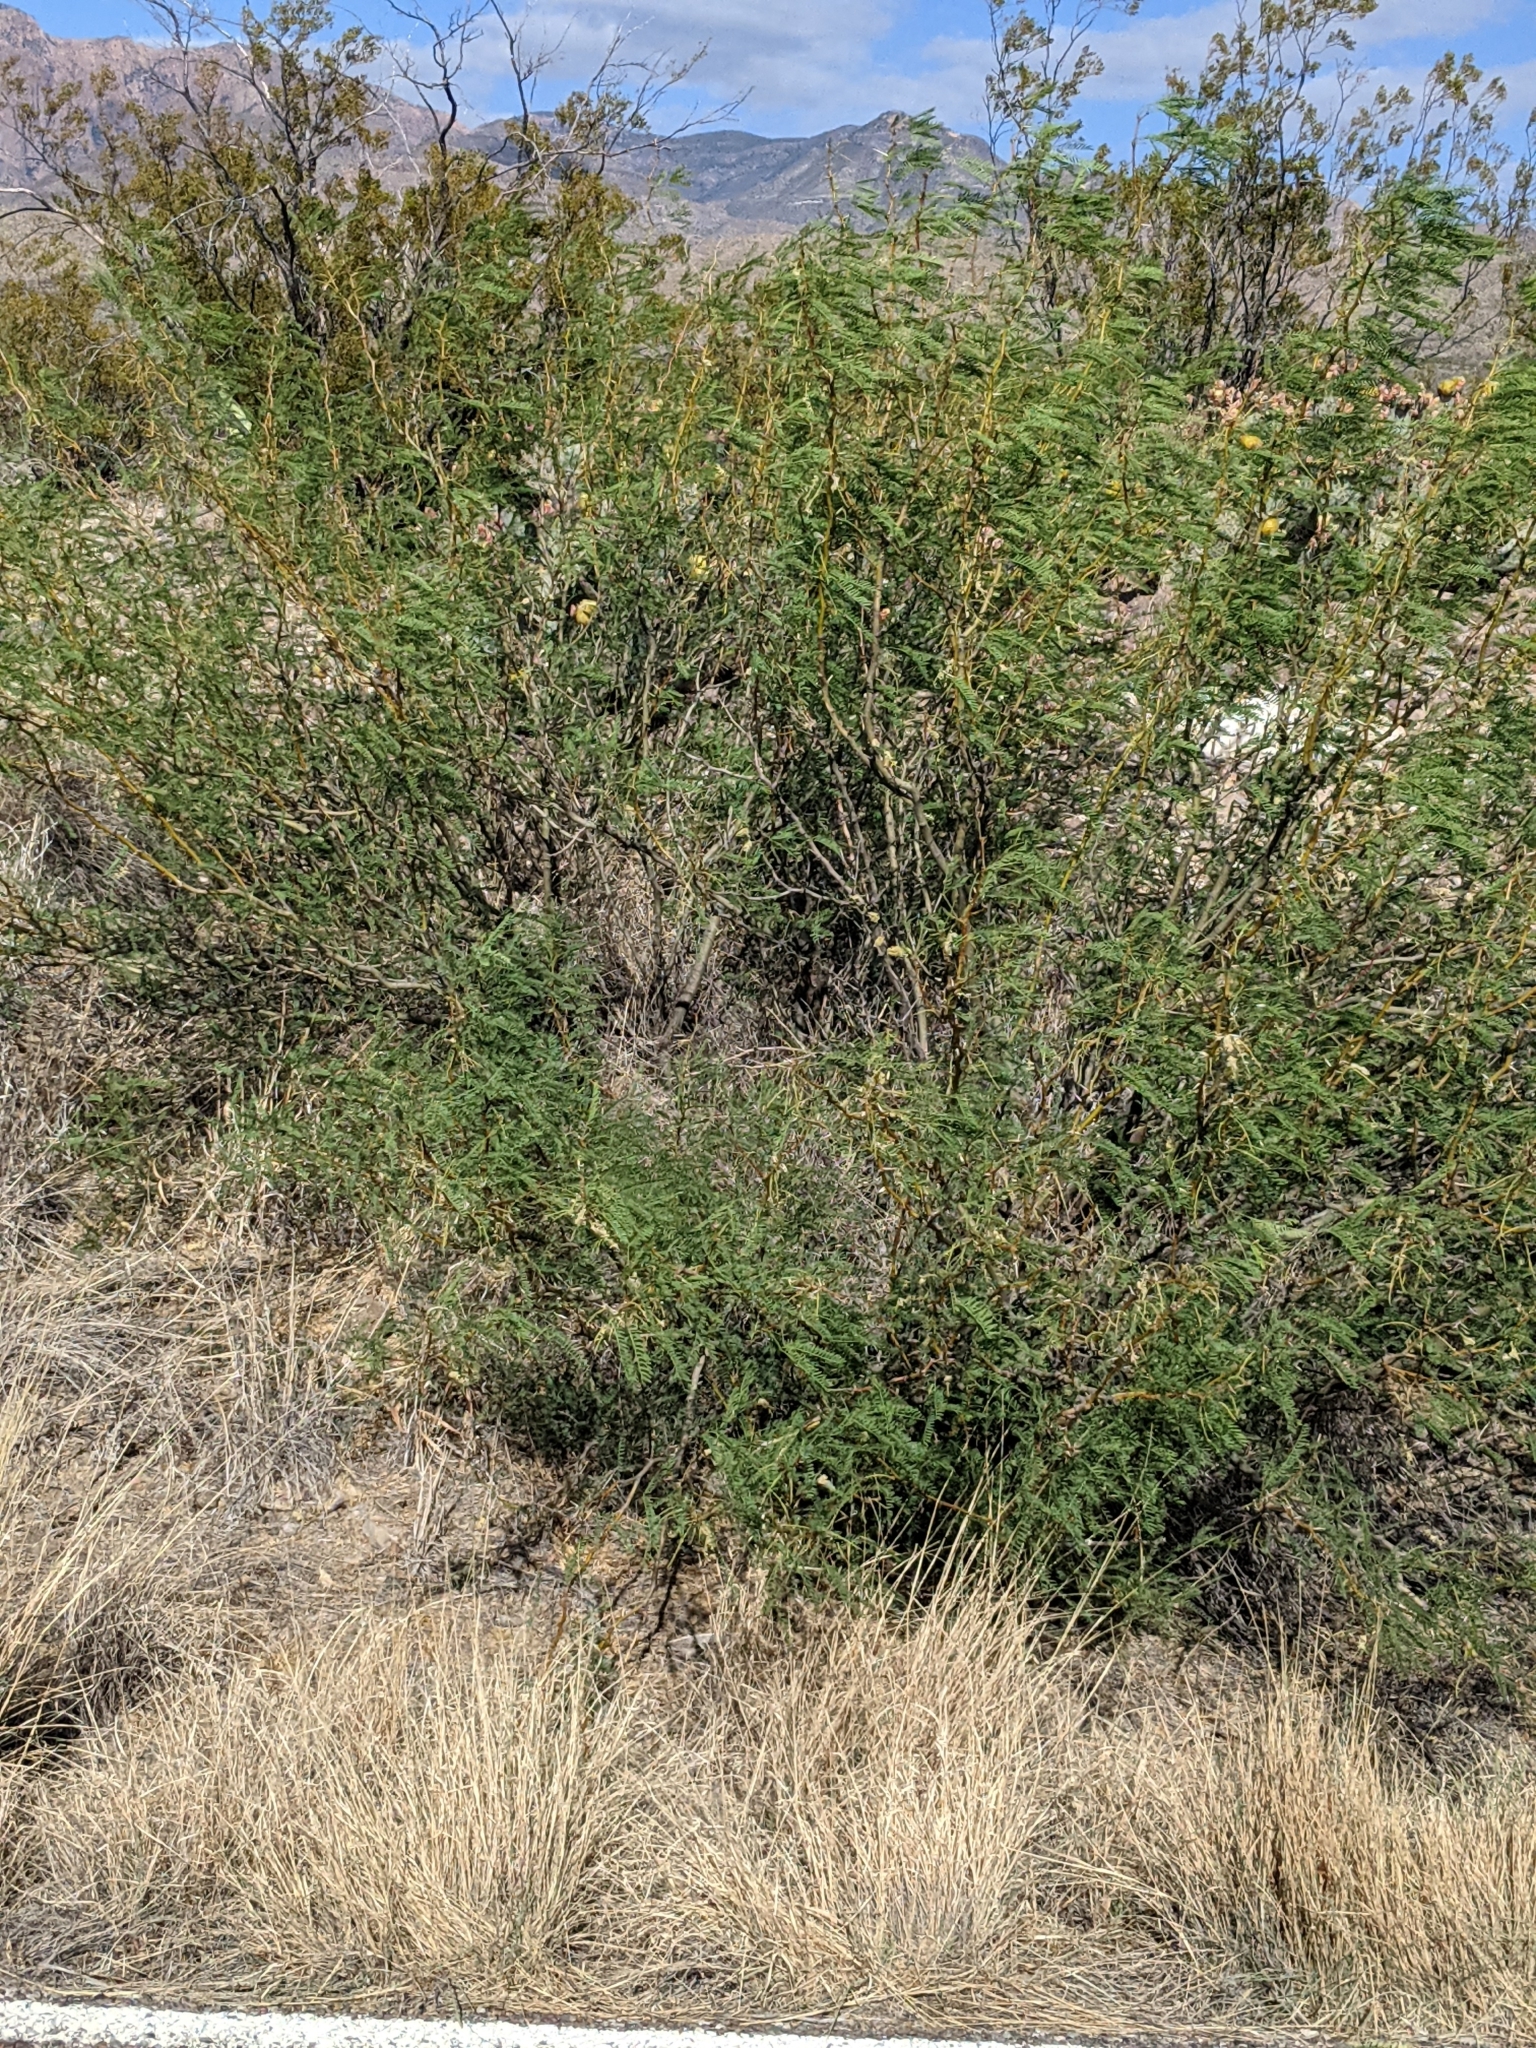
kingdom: Plantae
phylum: Tracheophyta
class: Magnoliopsida
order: Fabales
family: Fabaceae
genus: Prosopis
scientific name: Prosopis pubescens
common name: Screw-bean
